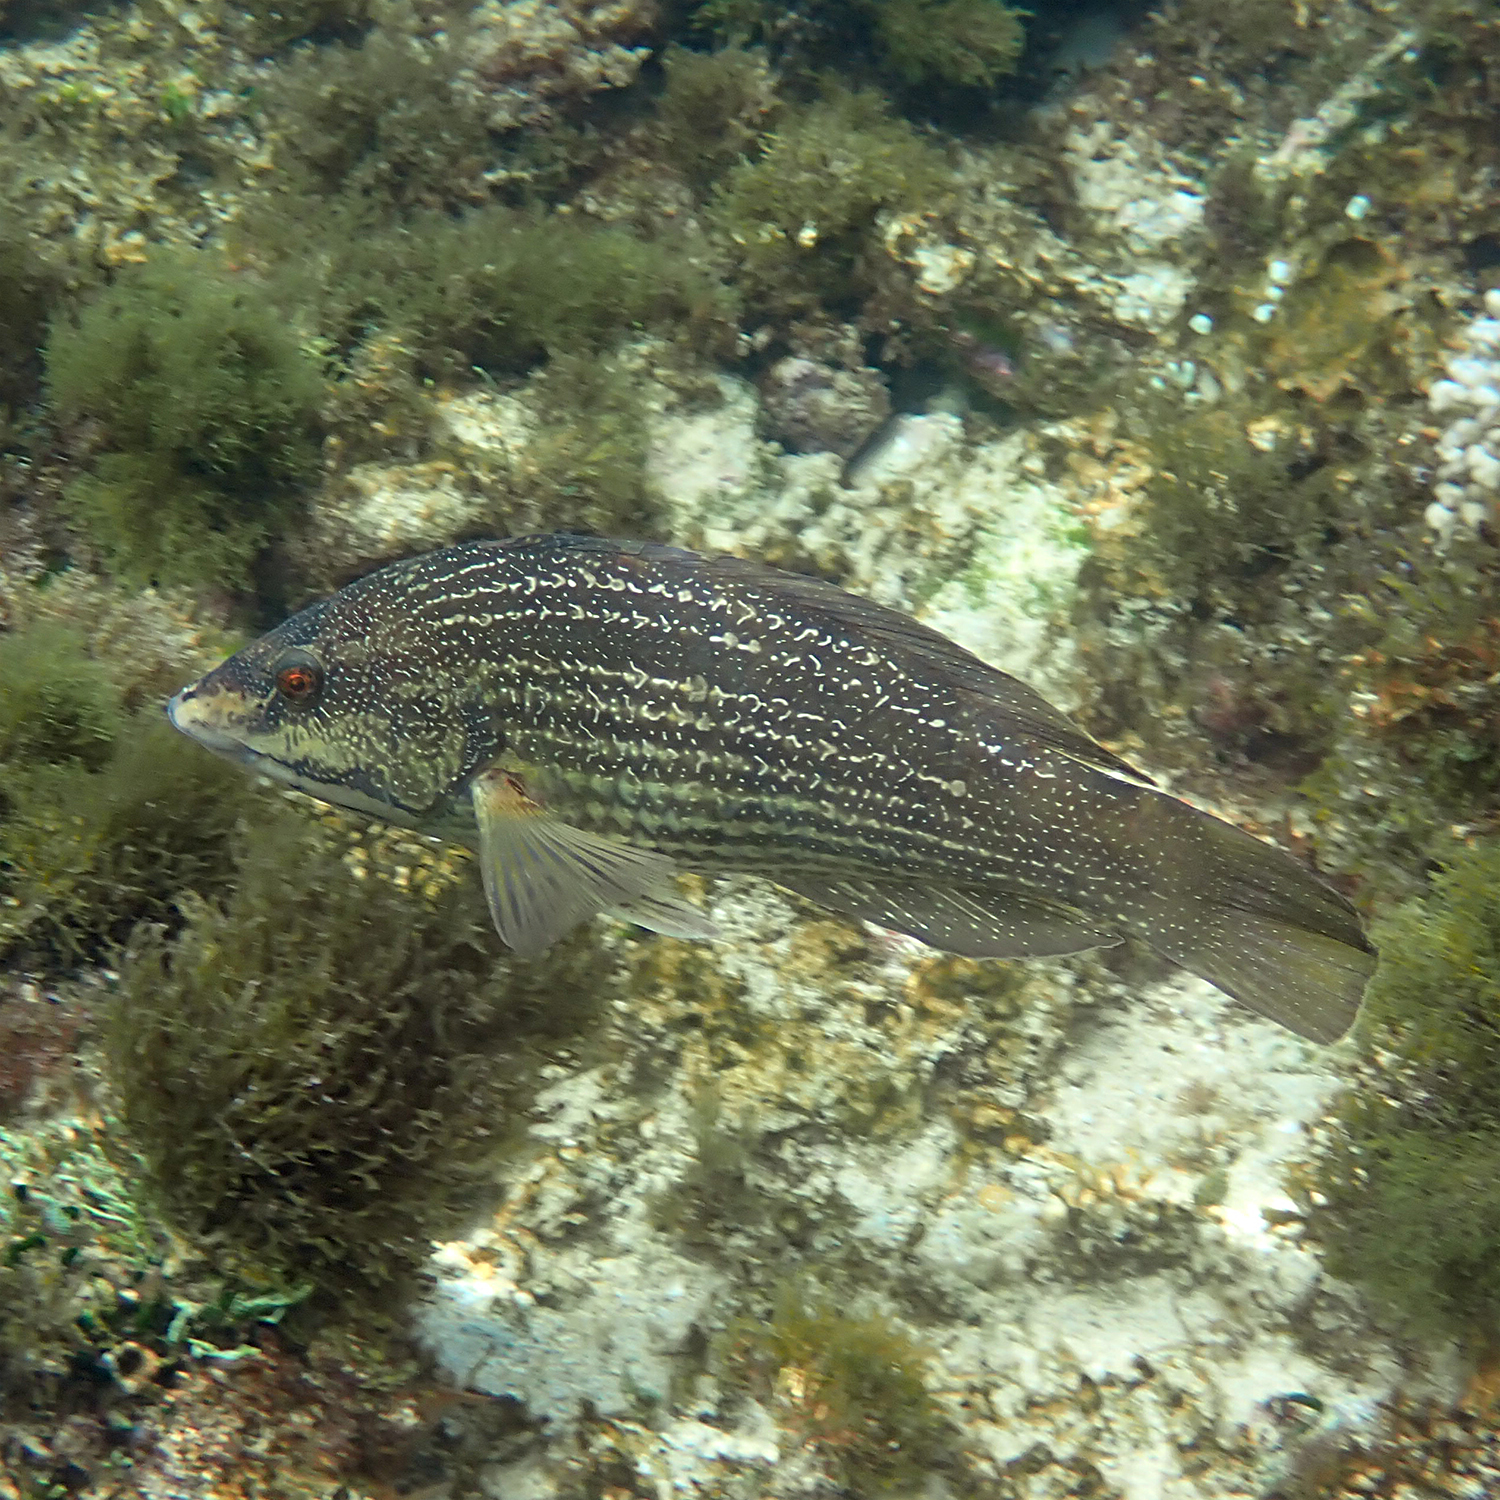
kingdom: Animalia
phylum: Chordata
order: Perciformes
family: Labridae
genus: Notolabrus
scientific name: Notolabrus inscriptus
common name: Green wrasse
